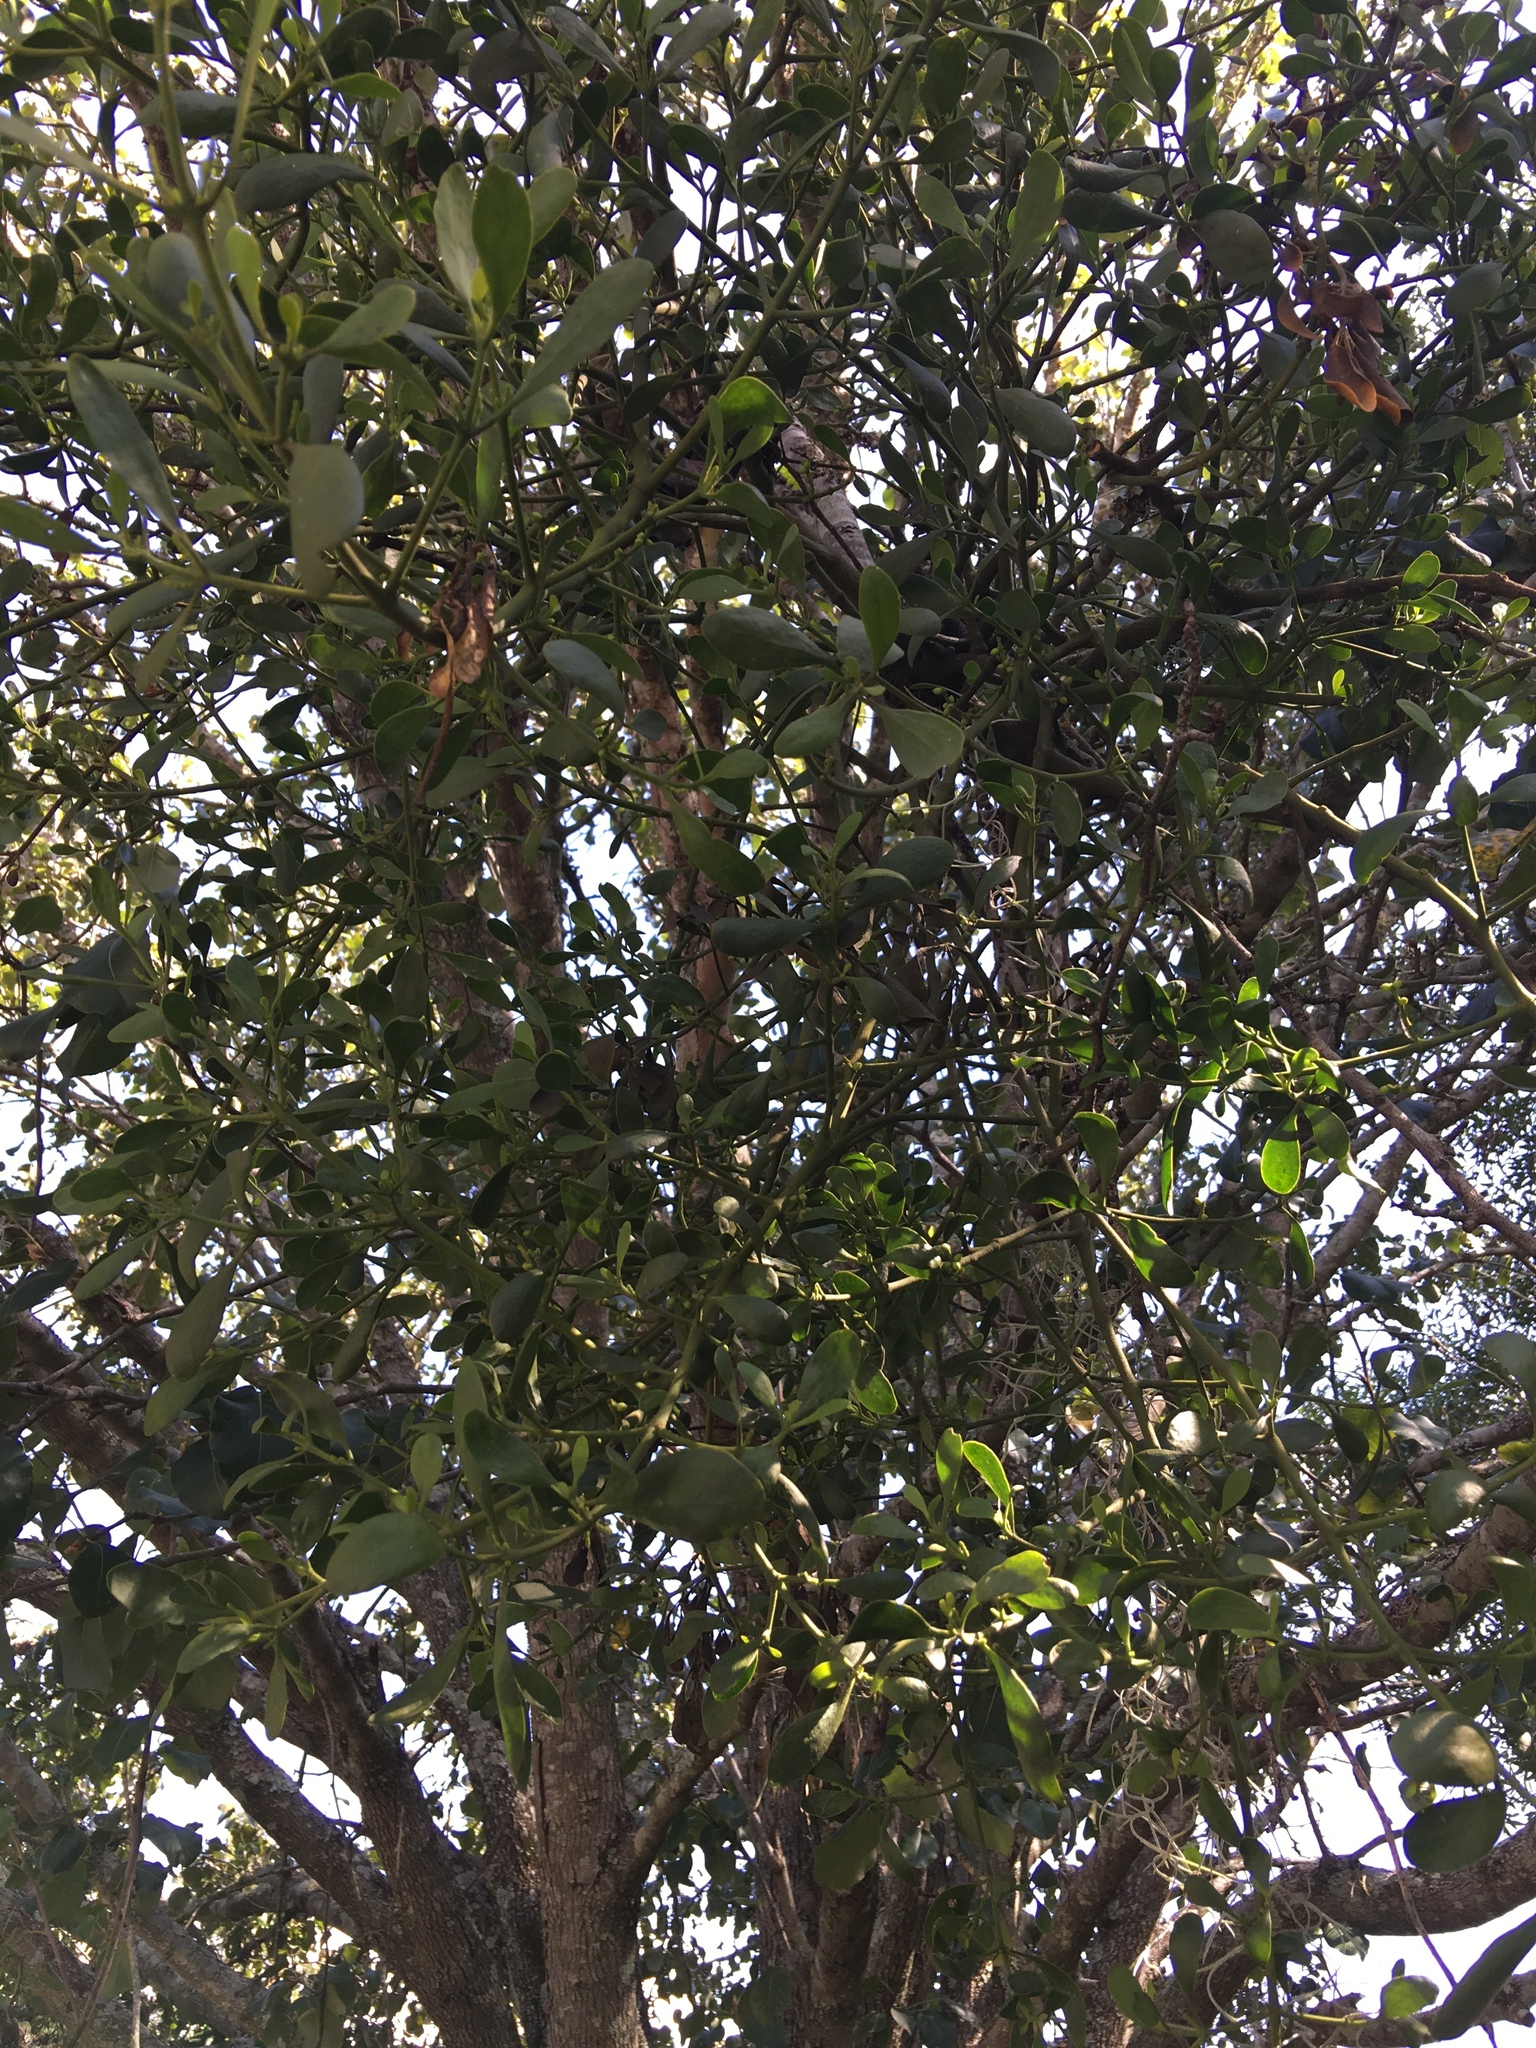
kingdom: Plantae
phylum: Tracheophyta
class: Magnoliopsida
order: Santalales
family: Viscaceae
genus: Phoradendron
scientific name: Phoradendron leucarpum
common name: Pacific mistletoe
